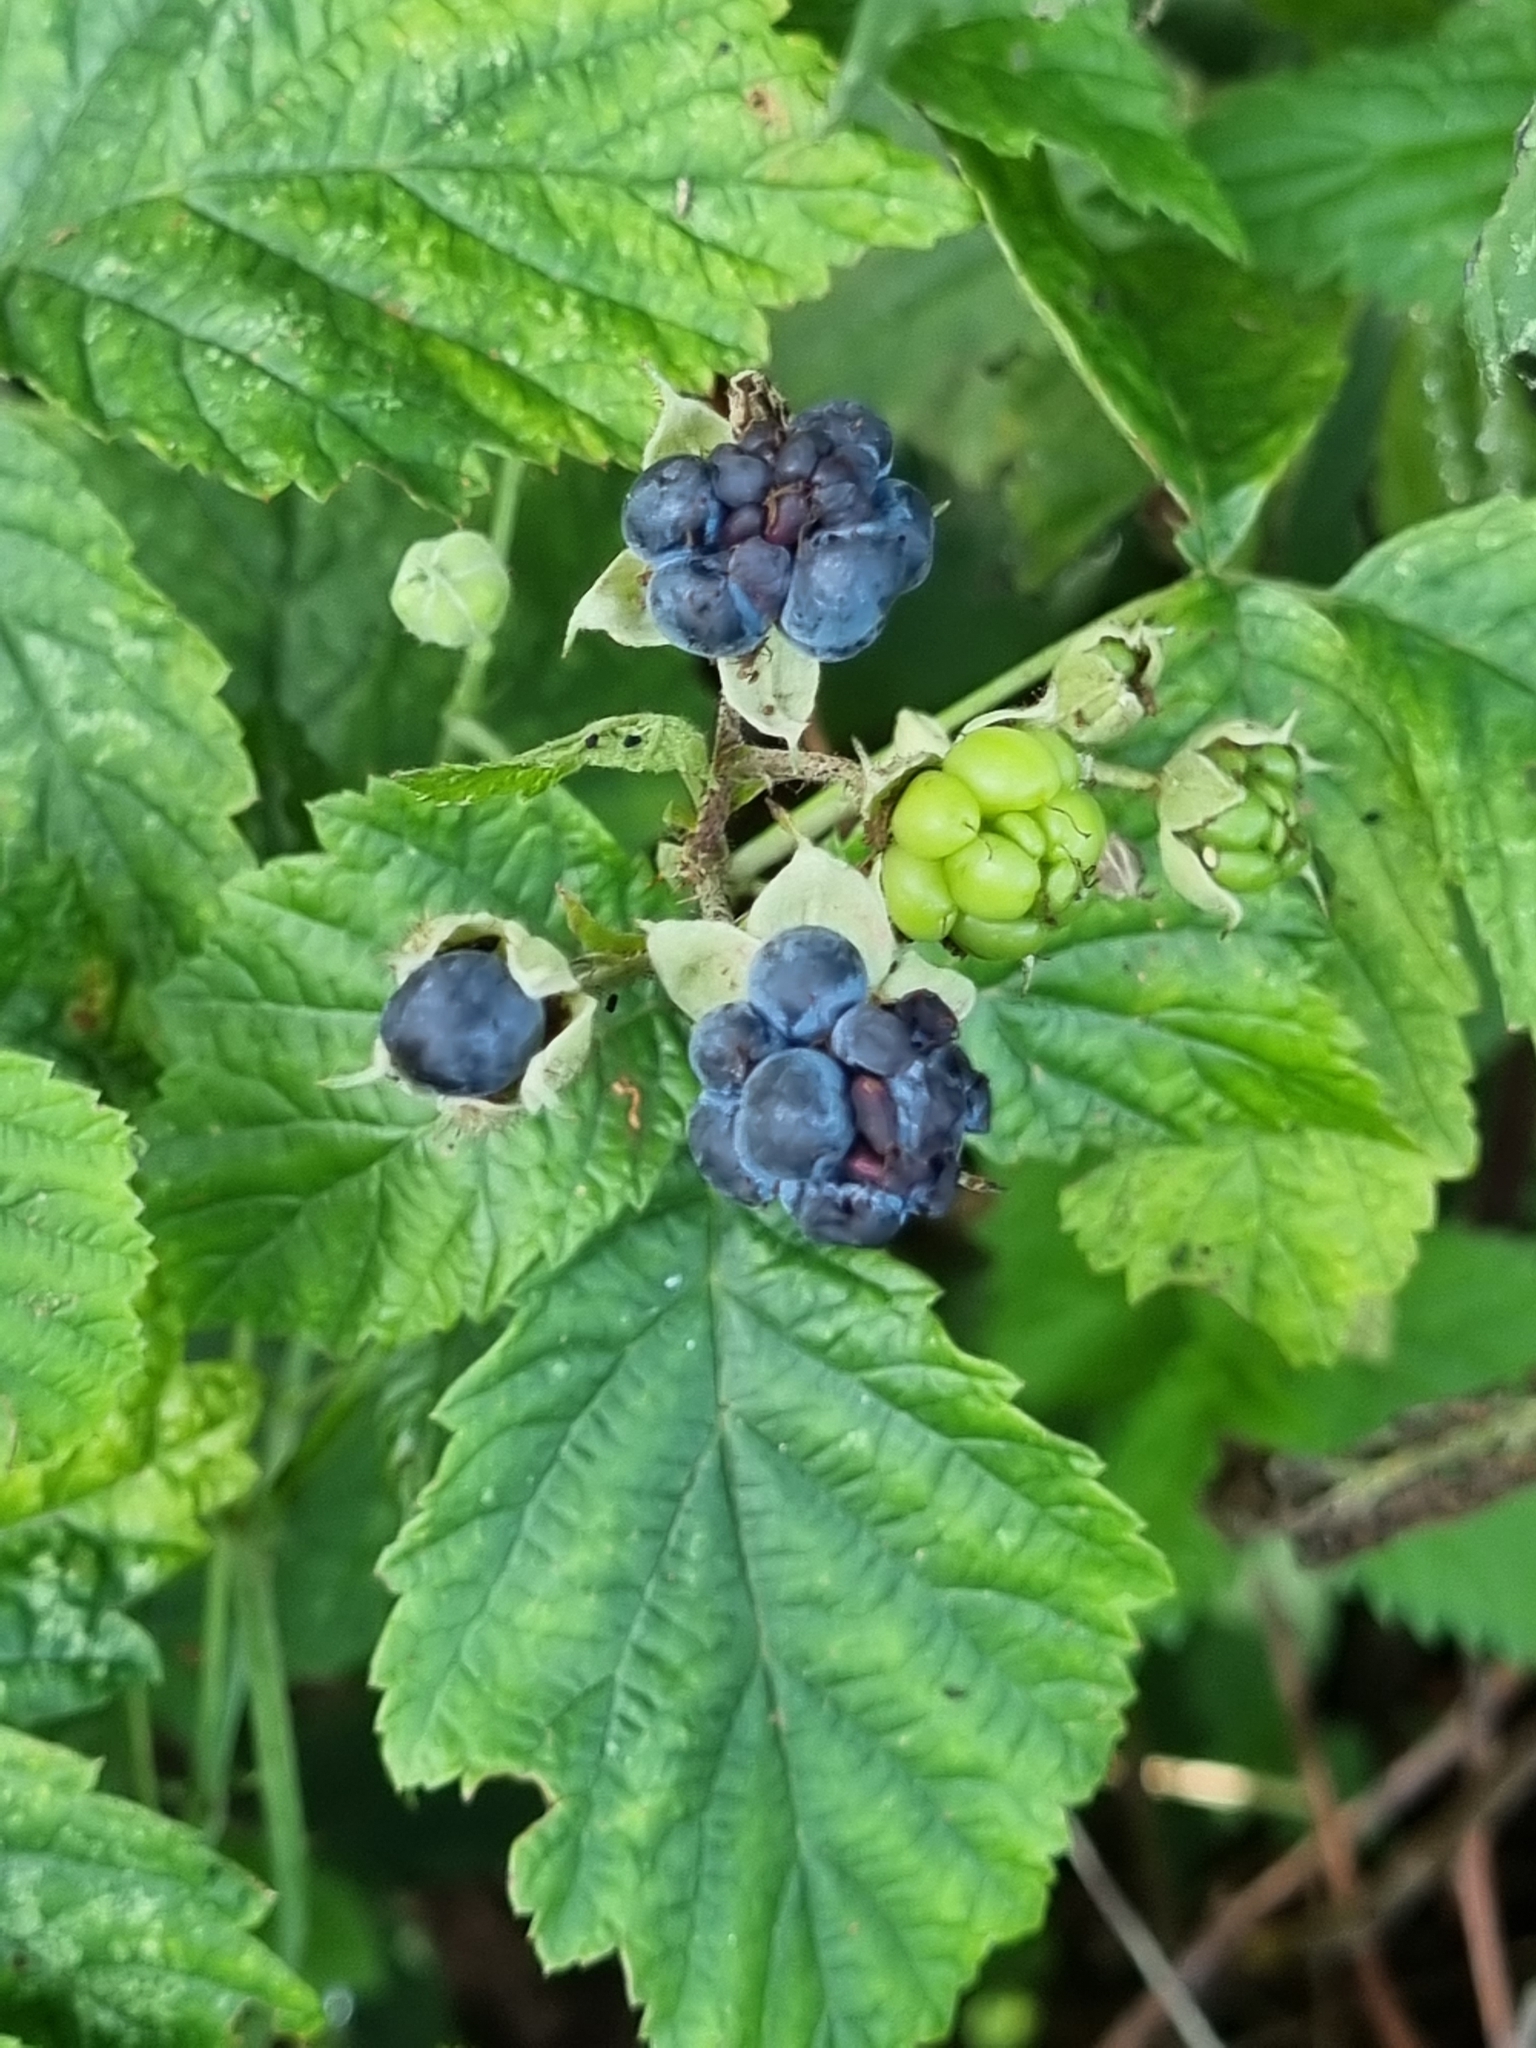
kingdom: Plantae
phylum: Tracheophyta
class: Magnoliopsida
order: Rosales
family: Rosaceae
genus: Rubus
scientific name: Rubus caesius
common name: Dewberry
